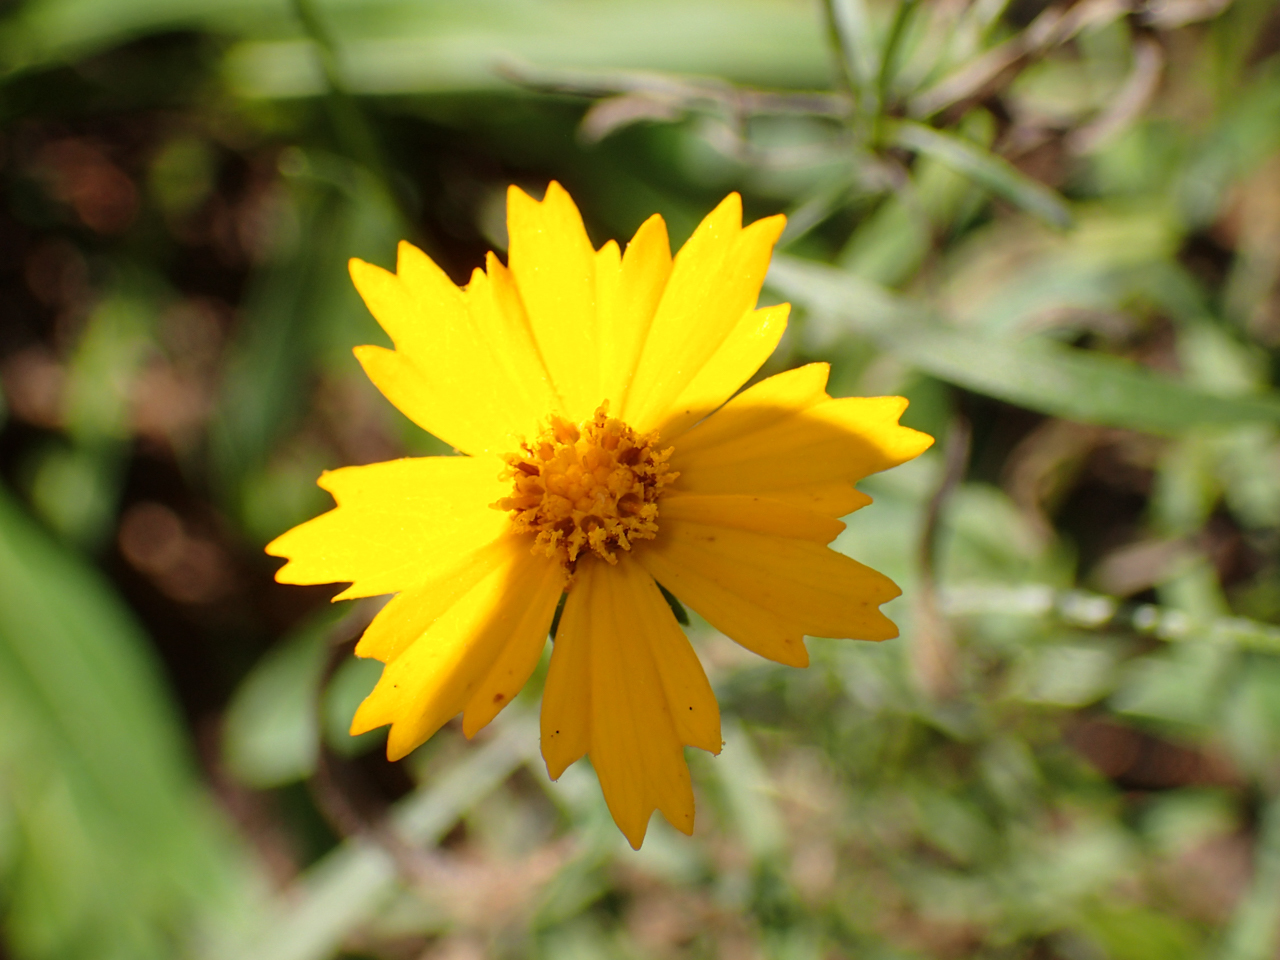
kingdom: Plantae
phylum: Tracheophyta
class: Magnoliopsida
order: Asterales
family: Asteraceae
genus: Coreopsis
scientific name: Coreopsis lanceolata
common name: Garden coreopsis
